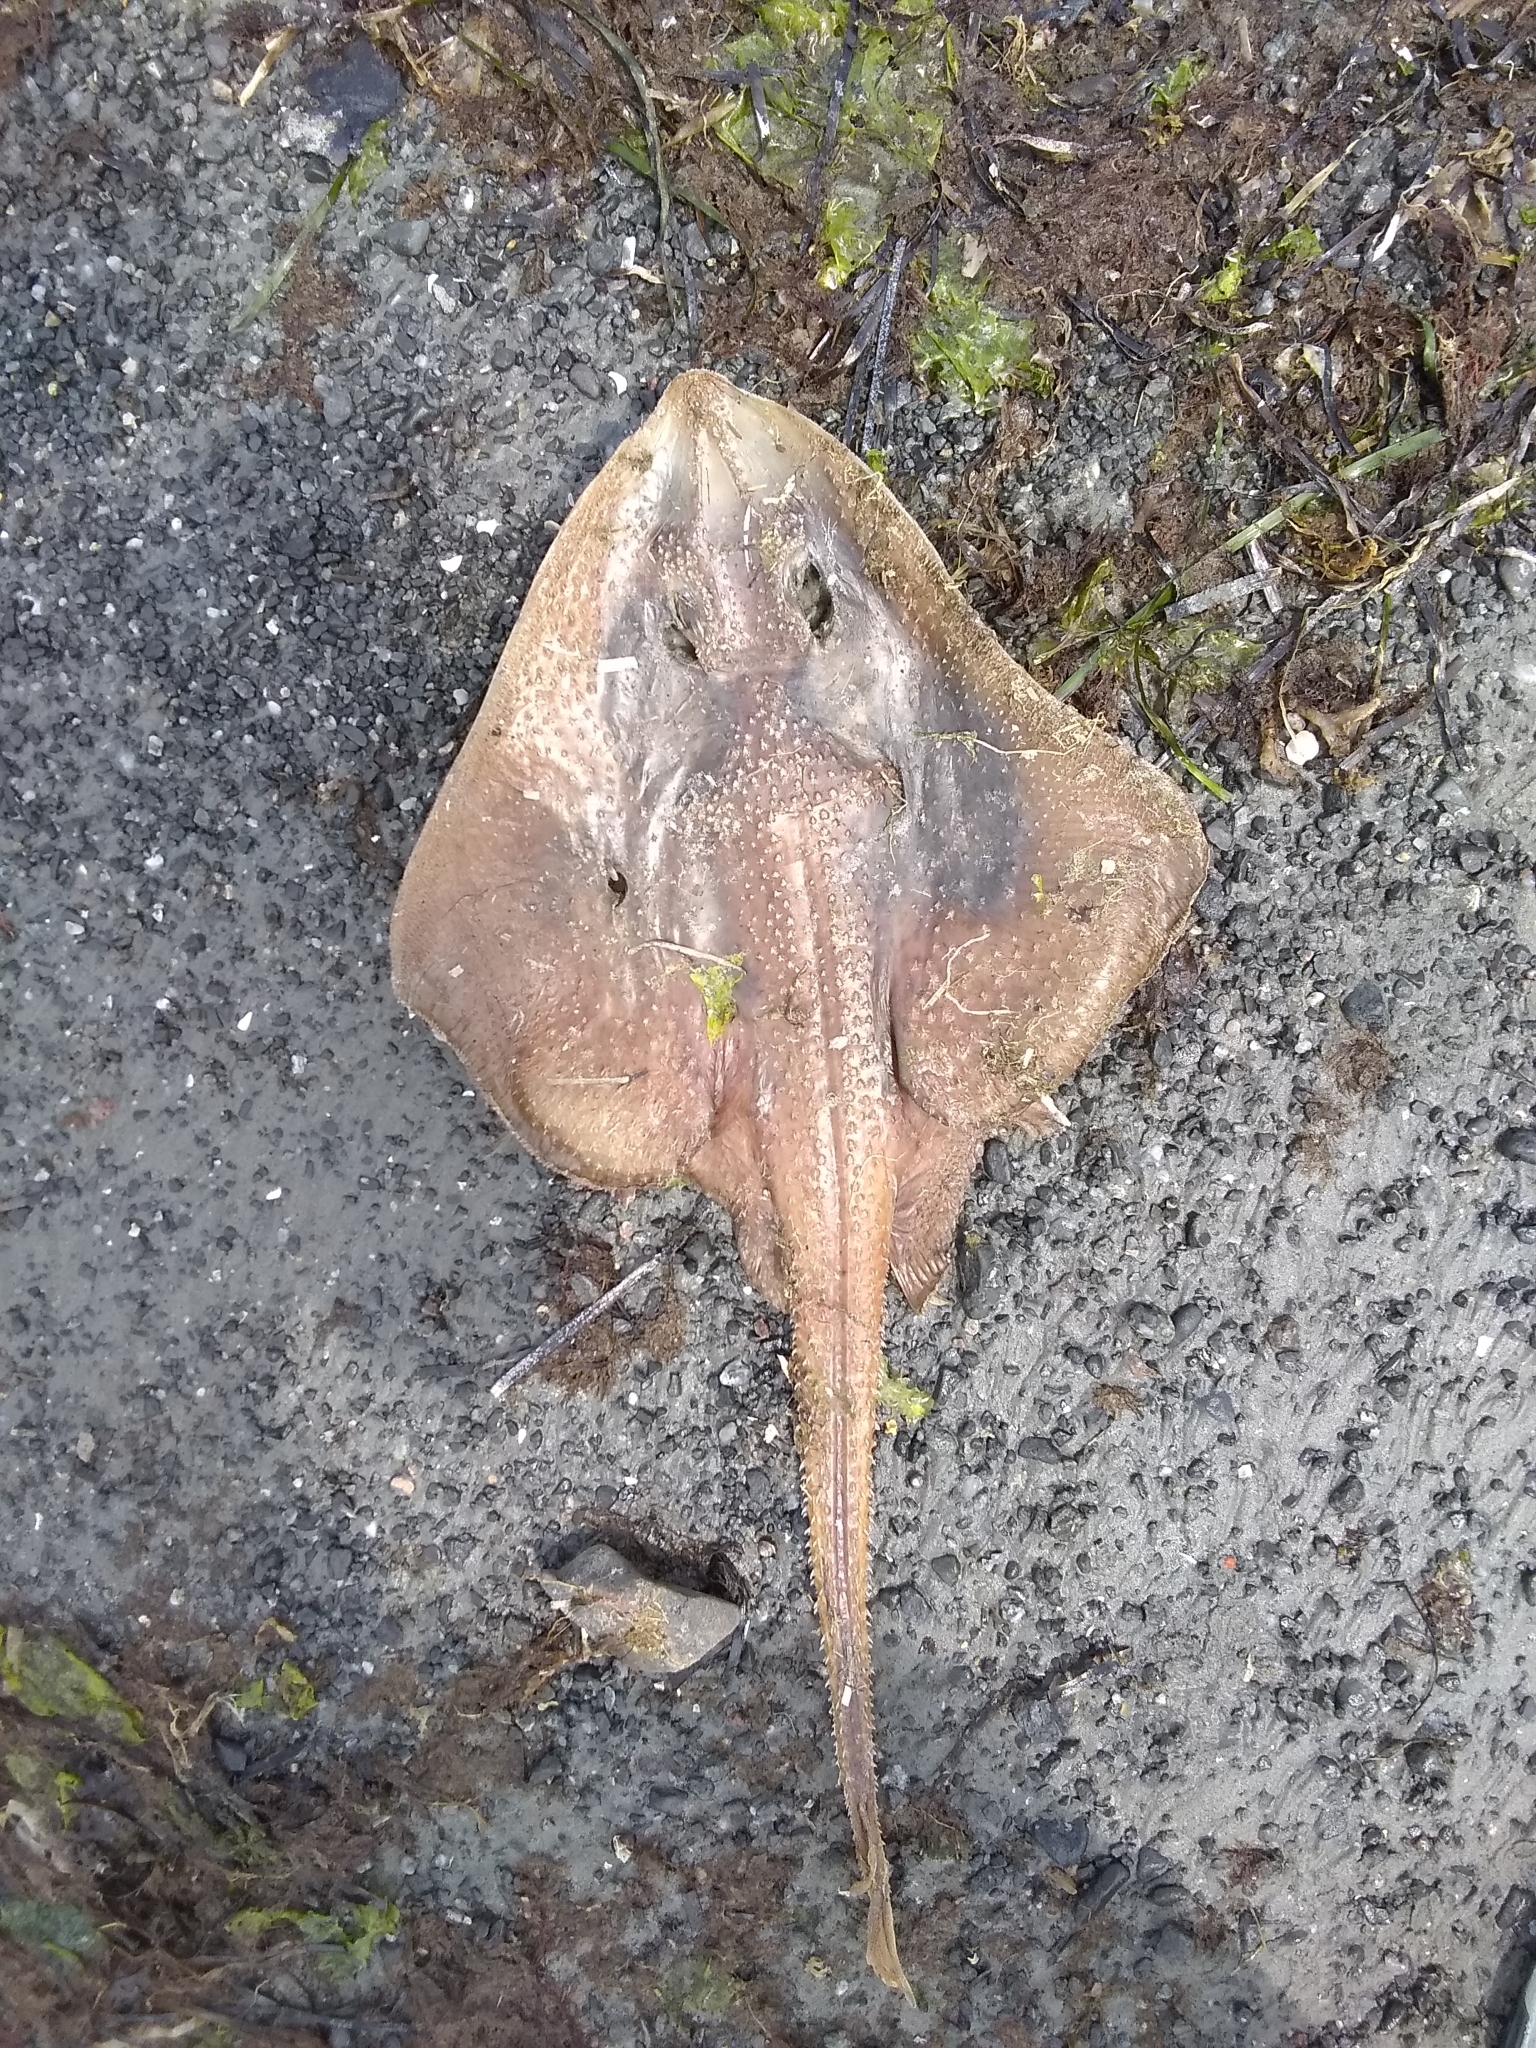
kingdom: Animalia
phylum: Chordata
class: Elasmobranchii
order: Rajiformes
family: Rajidae
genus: Leucoraja
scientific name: Leucoraja erinacea
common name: Little skate
